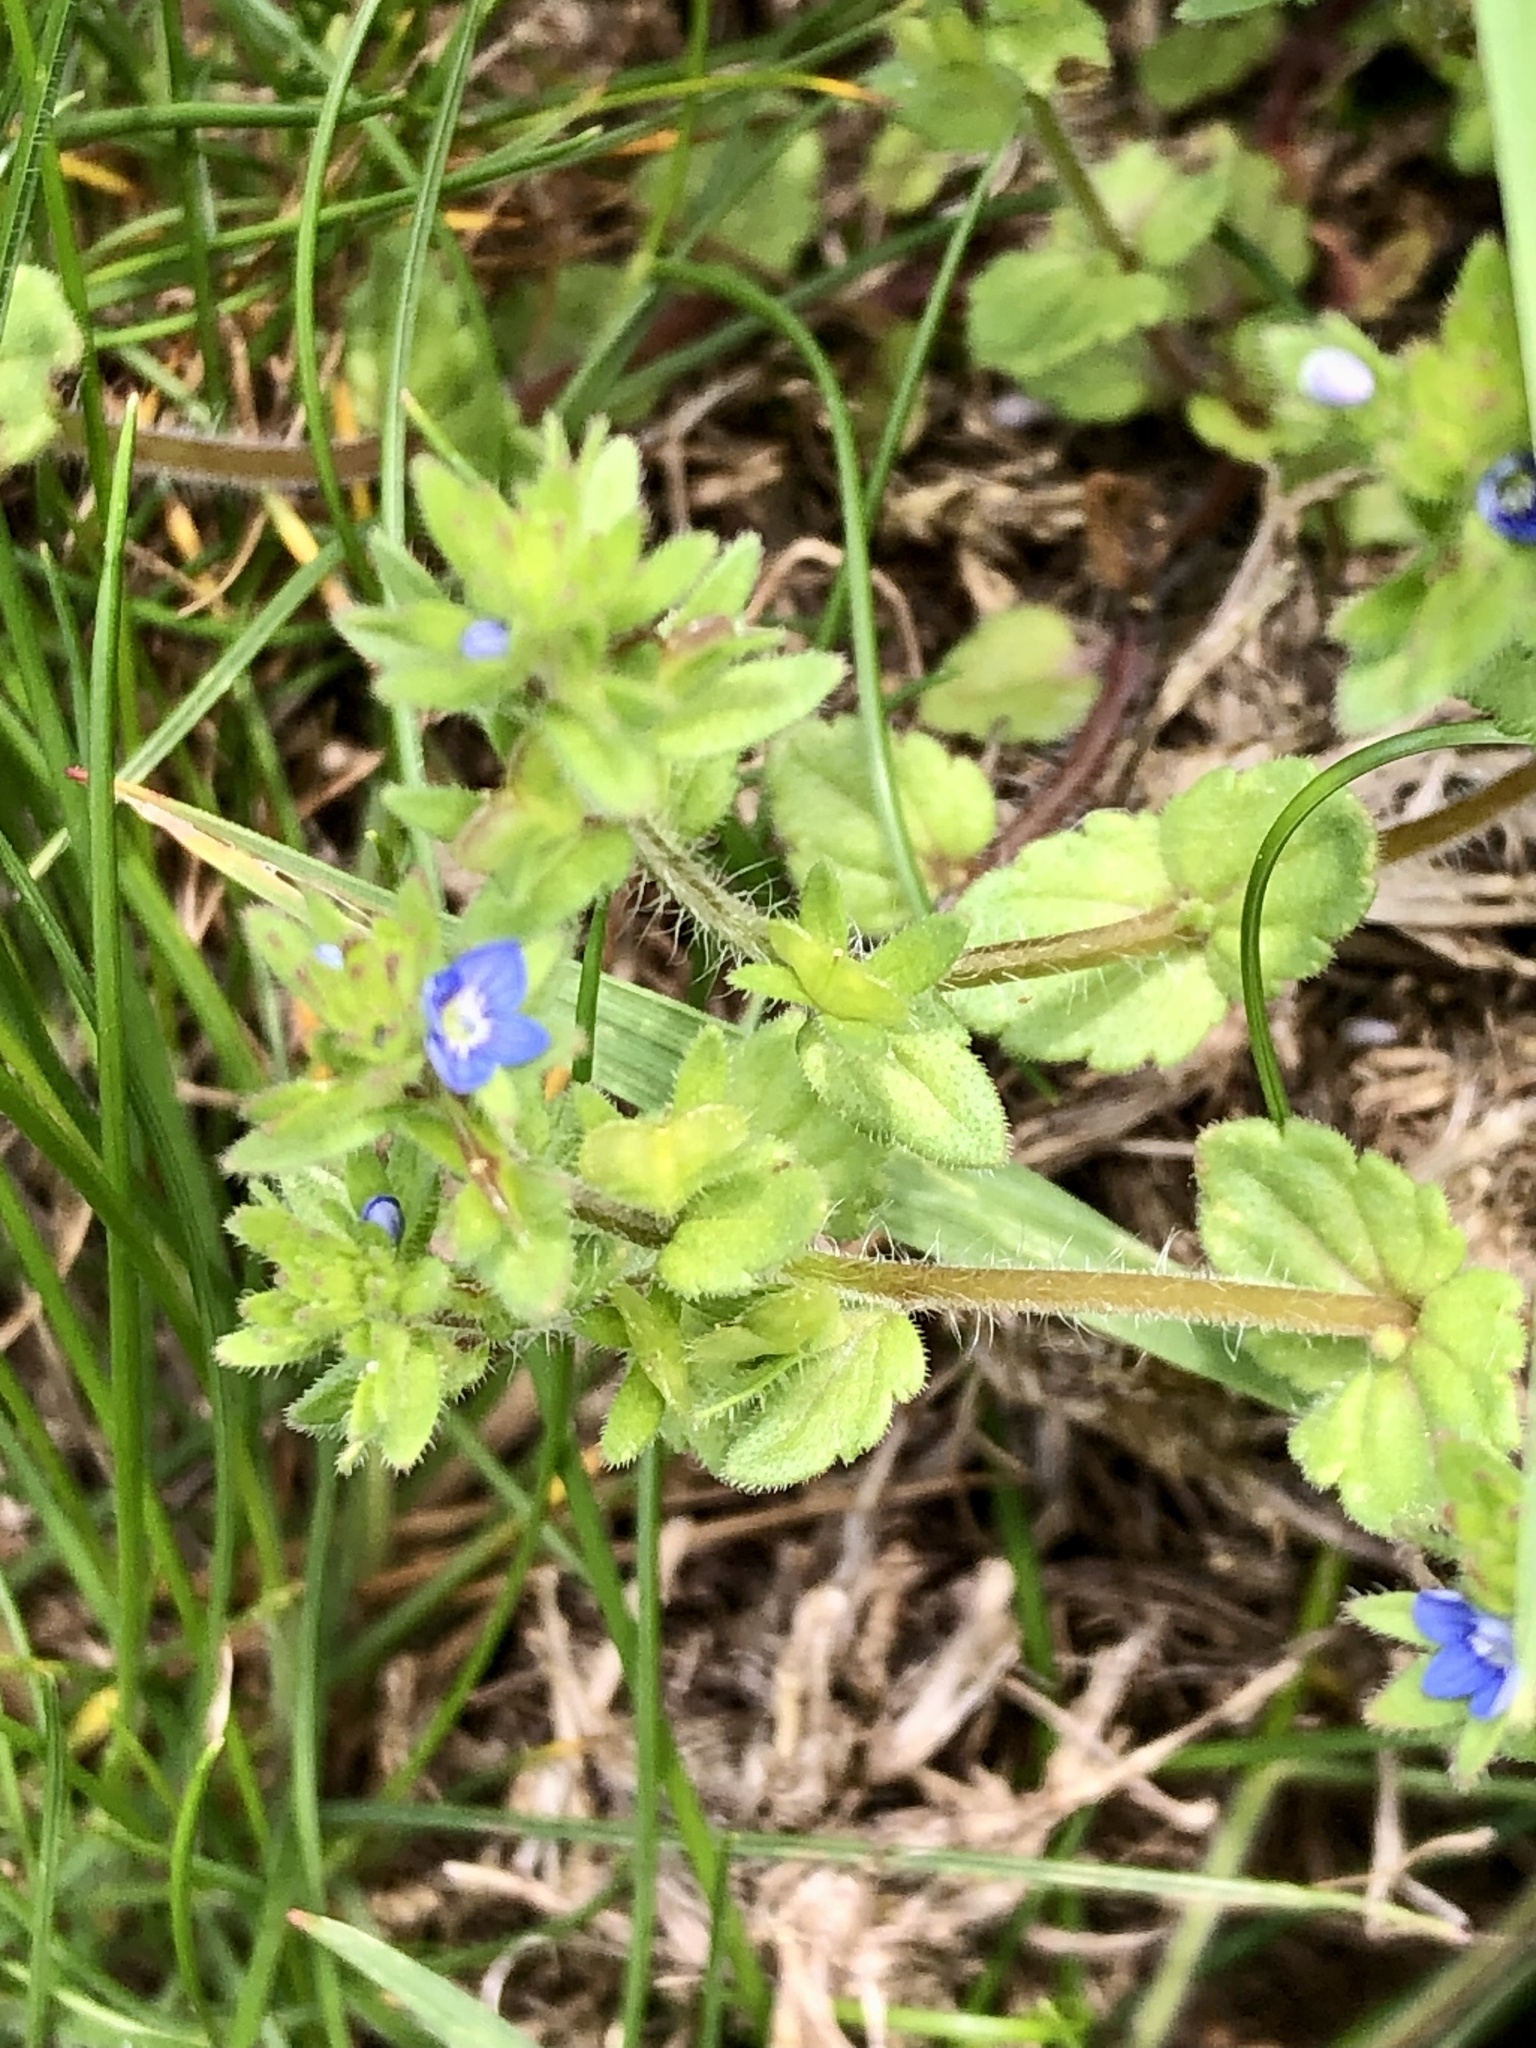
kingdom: Plantae
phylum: Tracheophyta
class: Magnoliopsida
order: Lamiales
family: Plantaginaceae
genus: Veronica
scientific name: Veronica arvensis
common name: Corn speedwell
